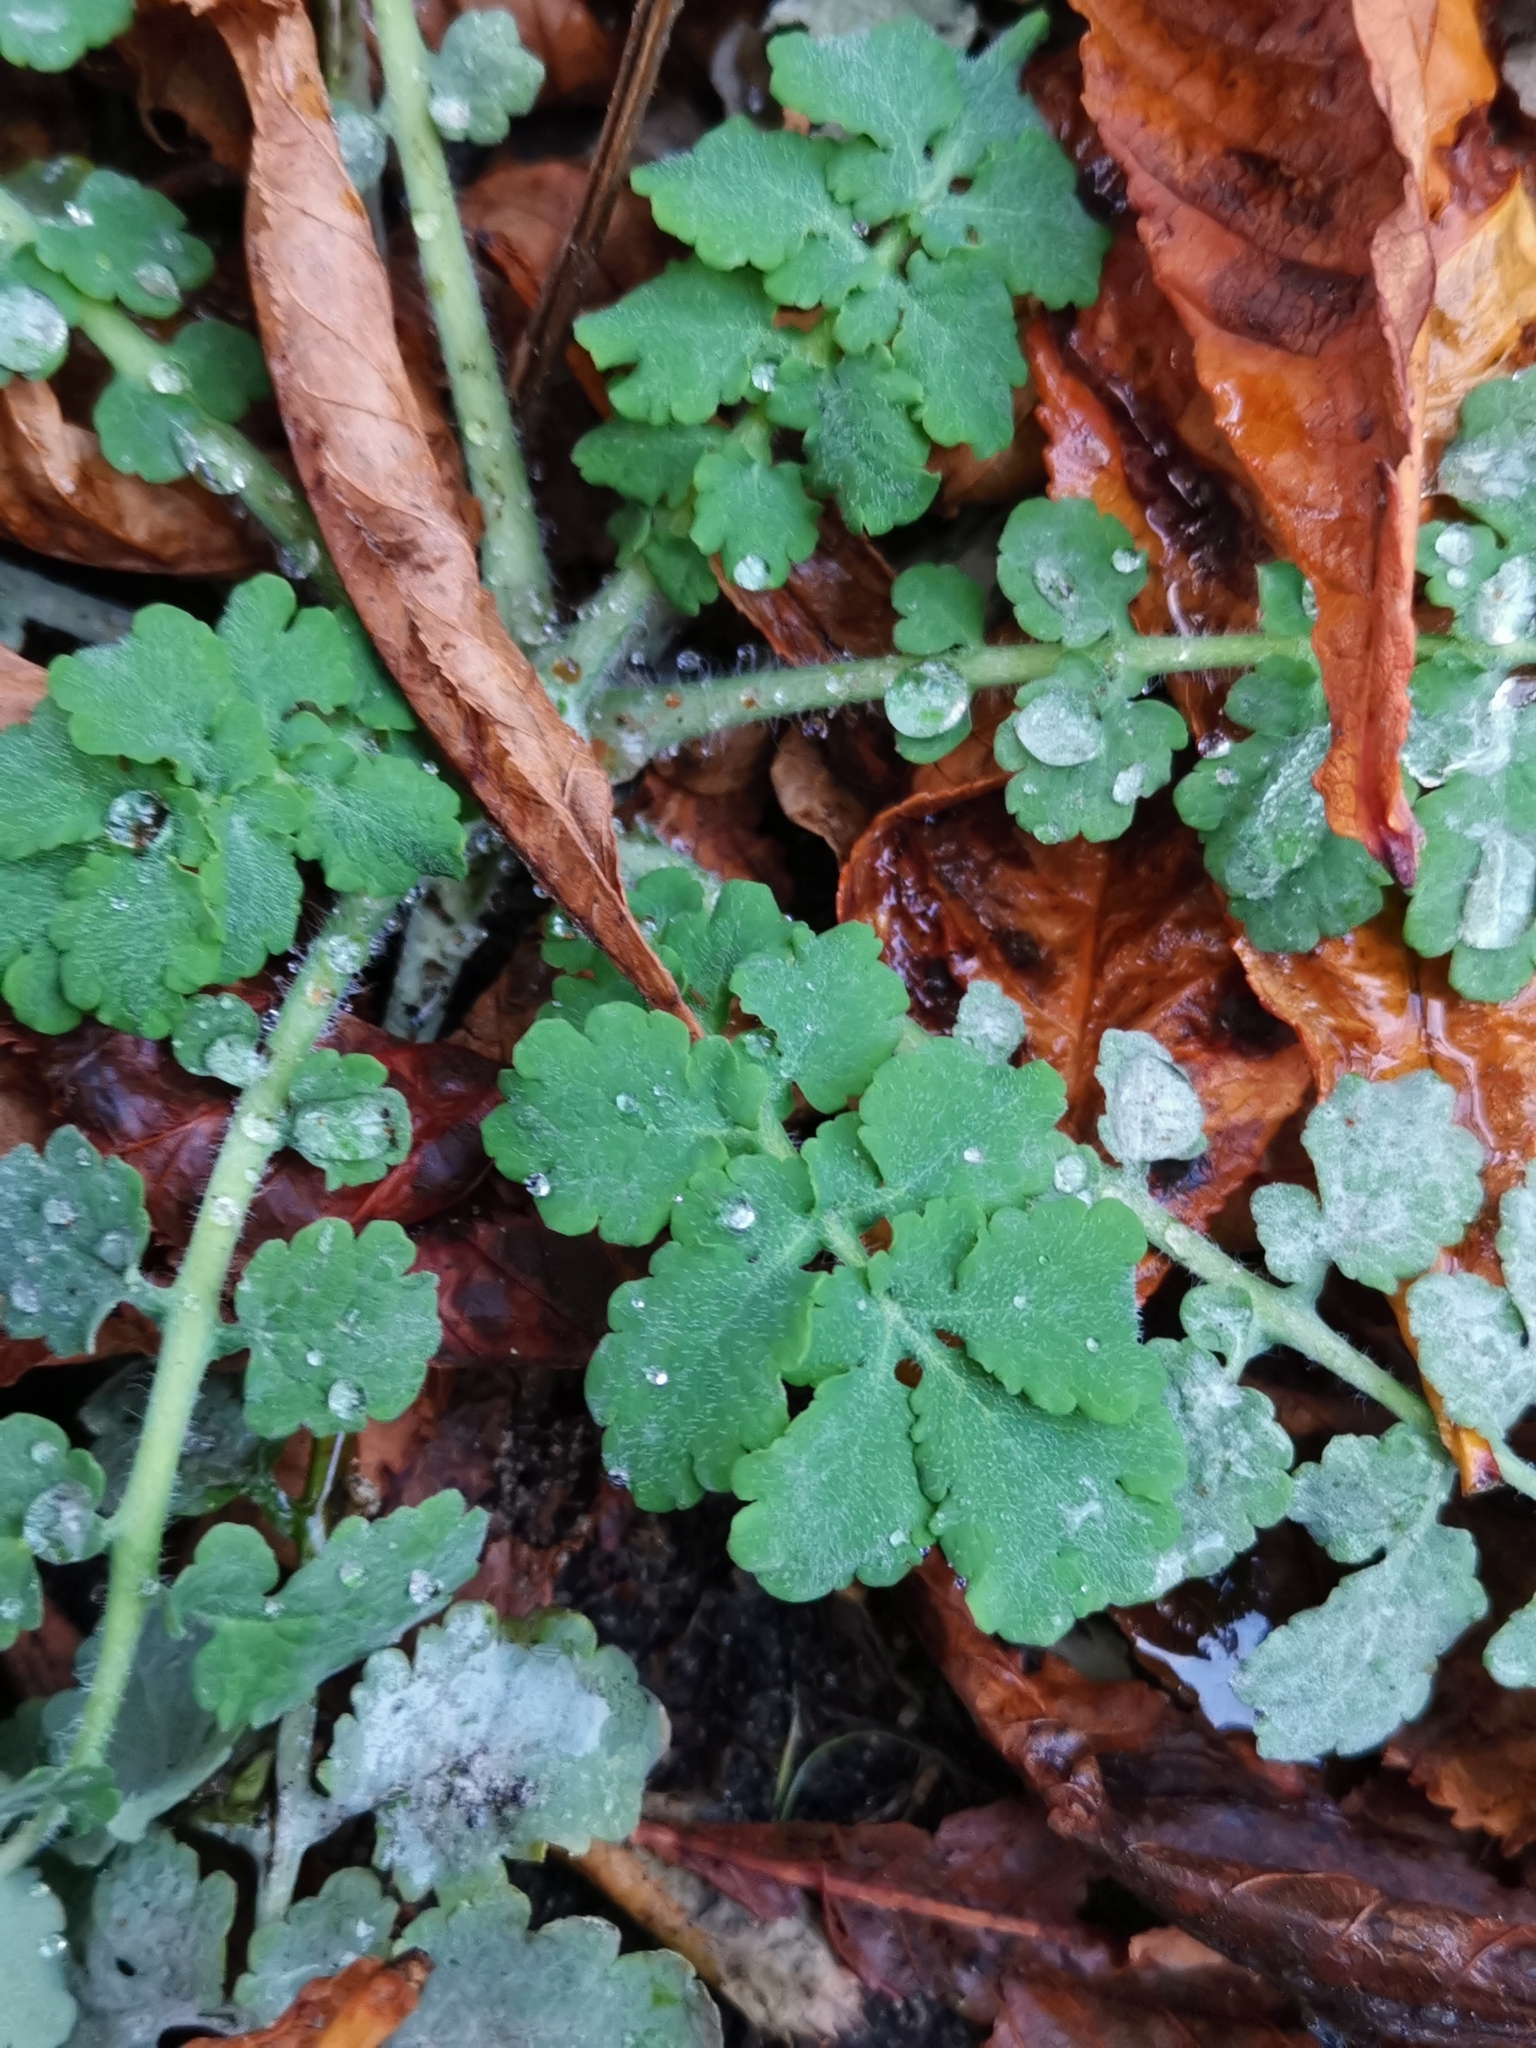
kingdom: Plantae
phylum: Tracheophyta
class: Magnoliopsida
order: Ranunculales
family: Papaveraceae
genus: Chelidonium
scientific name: Chelidonium majus
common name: Greater celandine
